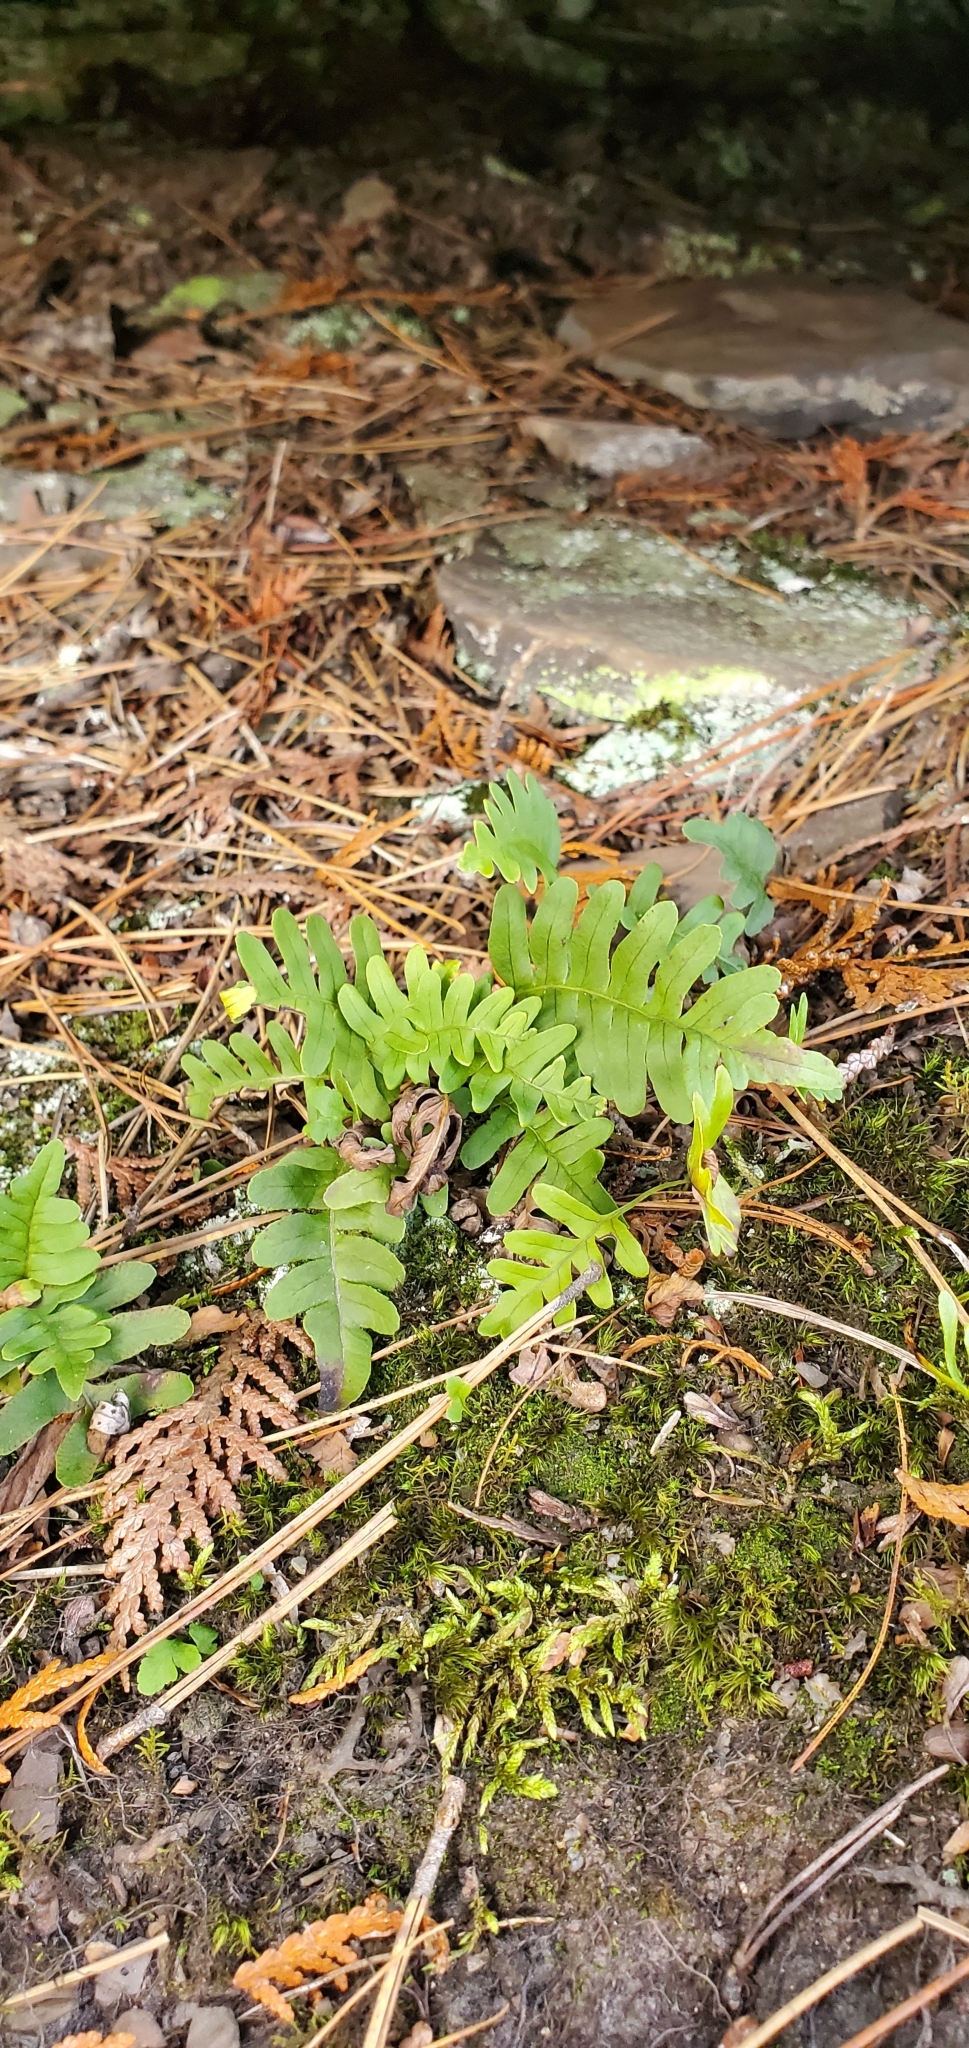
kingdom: Plantae
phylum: Tracheophyta
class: Polypodiopsida
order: Polypodiales
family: Polypodiaceae
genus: Polypodium
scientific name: Polypodium virginianum
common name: American wall fern
